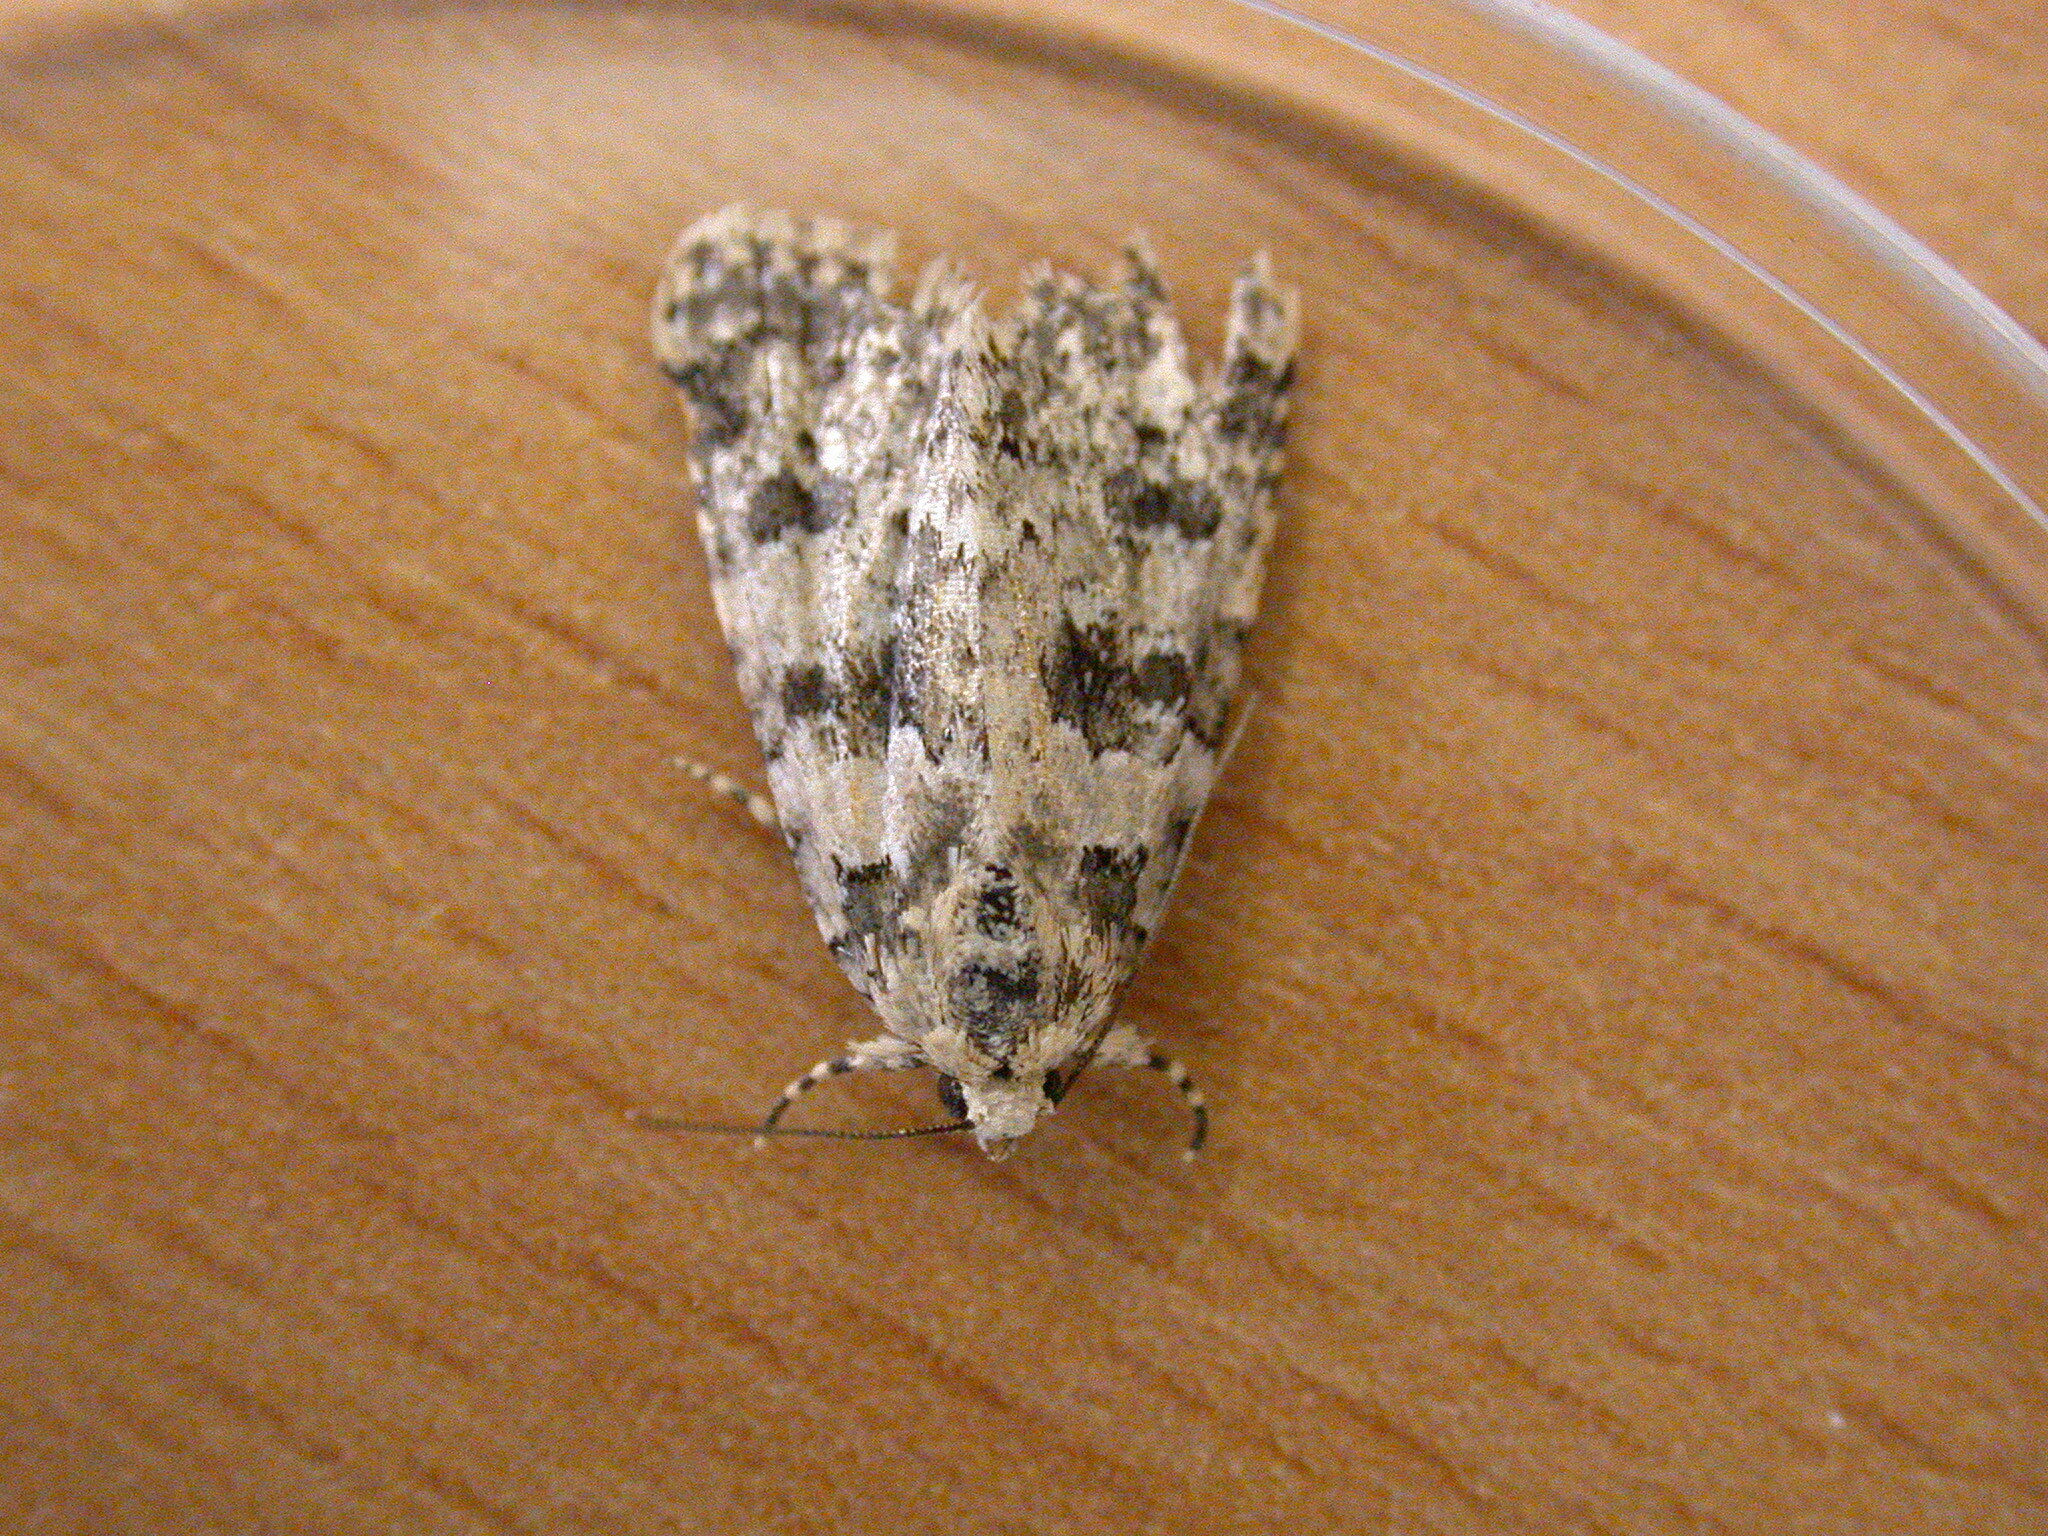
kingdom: Animalia
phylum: Arthropoda
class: Insecta
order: Lepidoptera
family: Noctuidae
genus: Bryophila
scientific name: Bryophila domestica
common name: Marbled beauty
